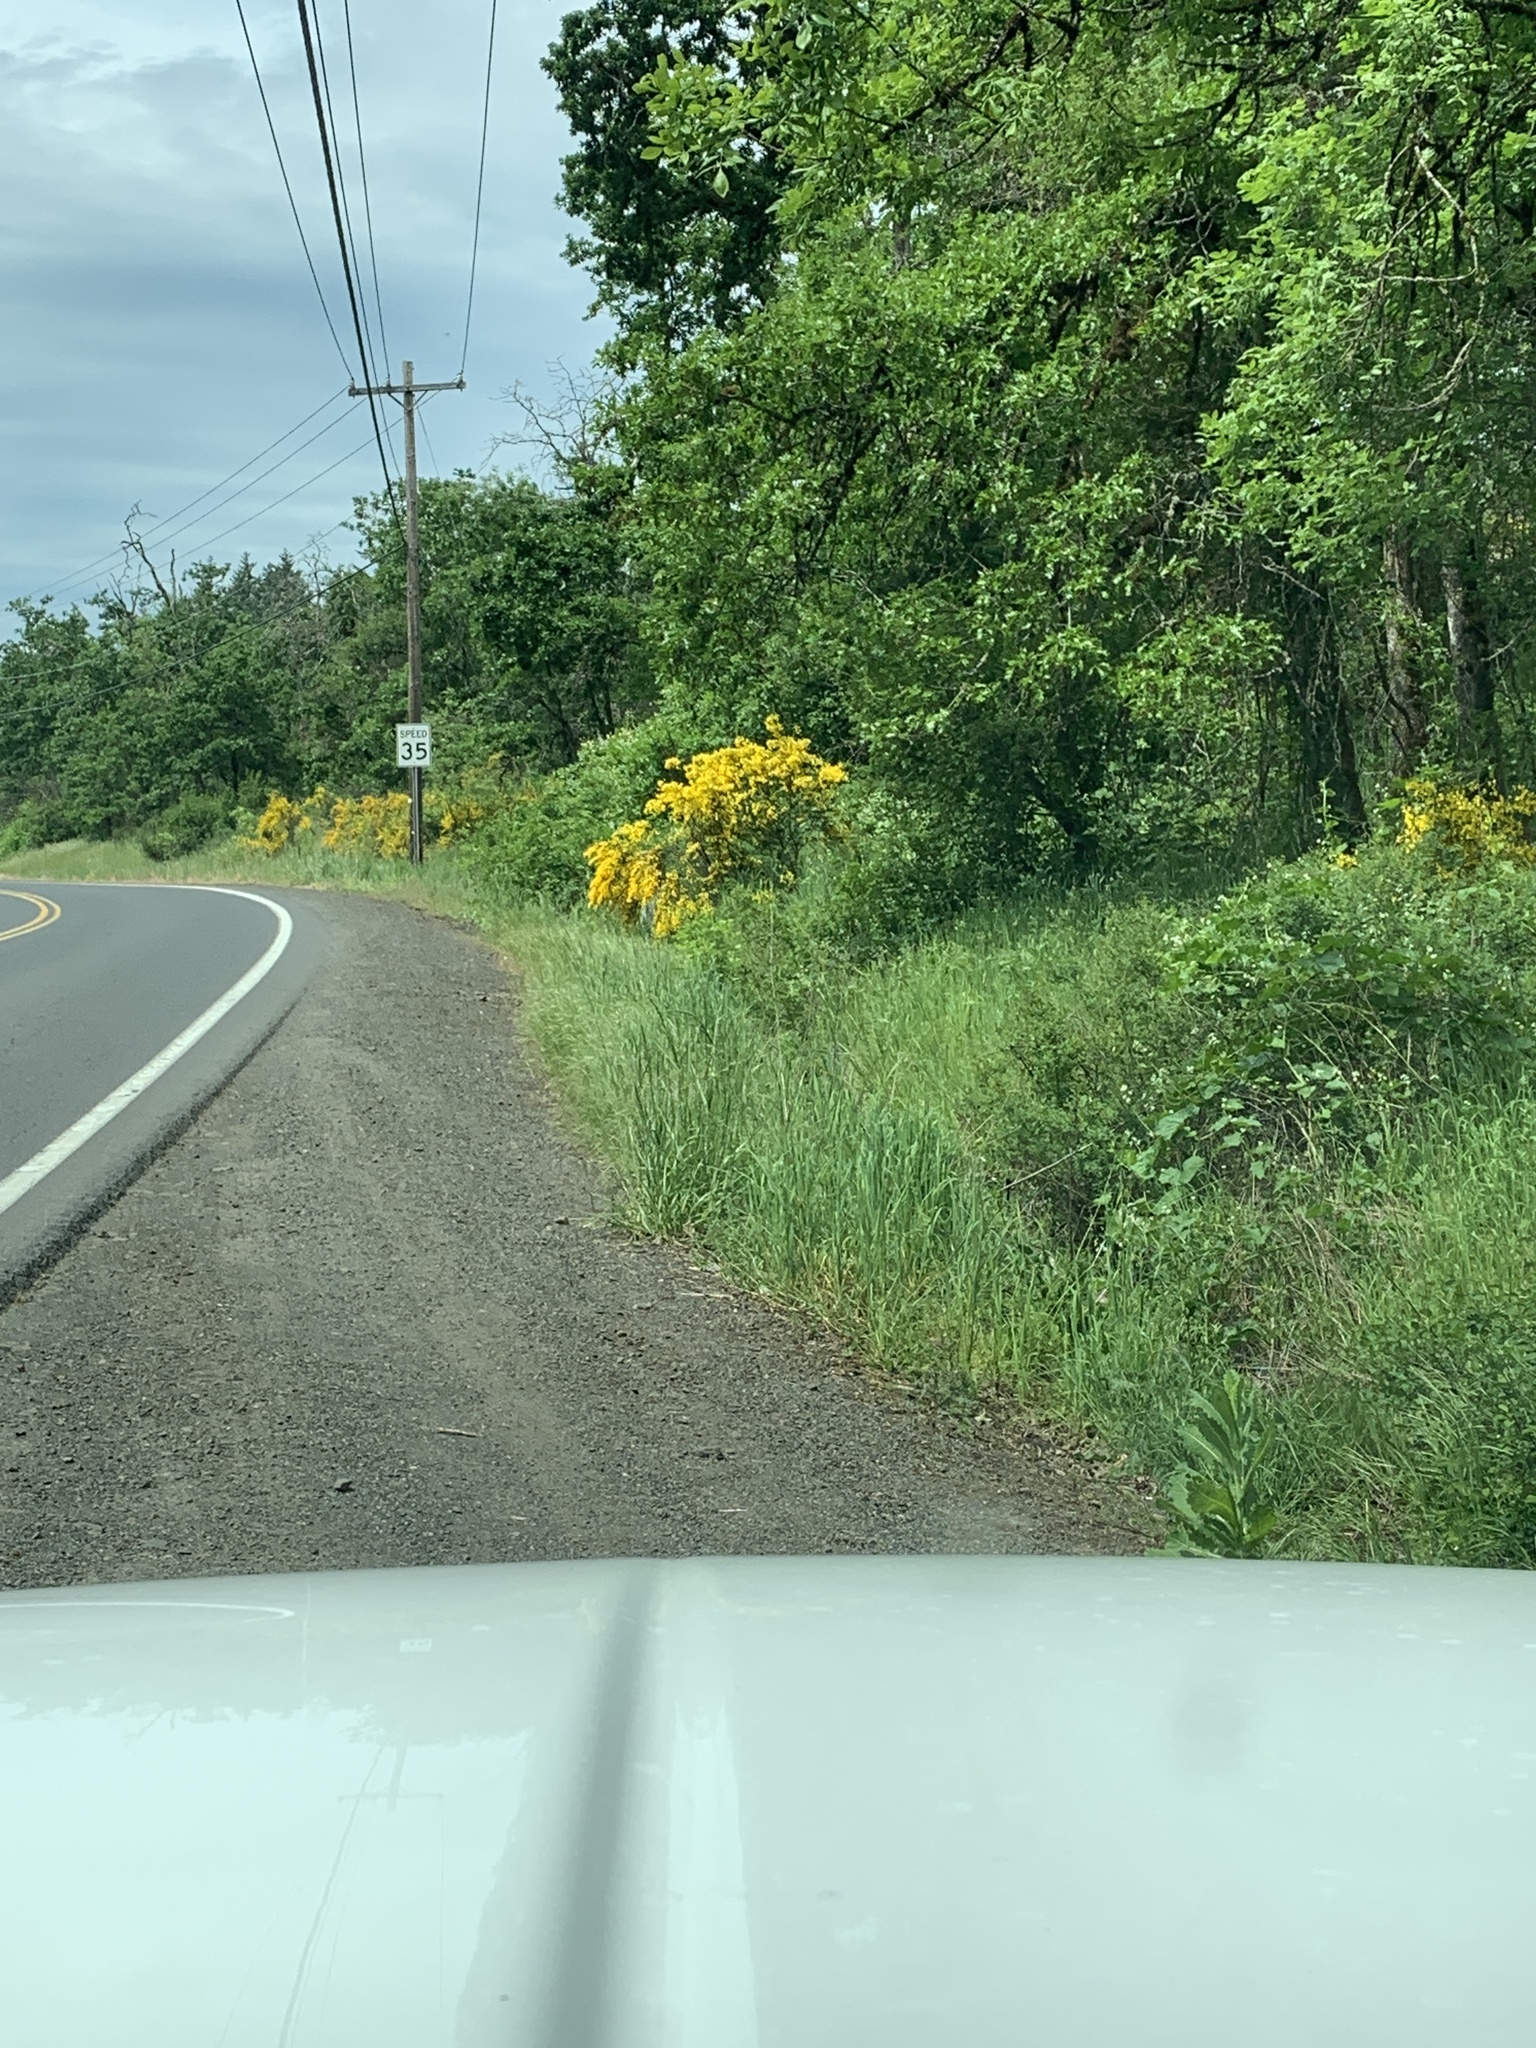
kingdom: Plantae
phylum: Tracheophyta
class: Magnoliopsida
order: Fabales
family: Fabaceae
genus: Cytisus
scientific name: Cytisus scoparius
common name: Scotch broom
